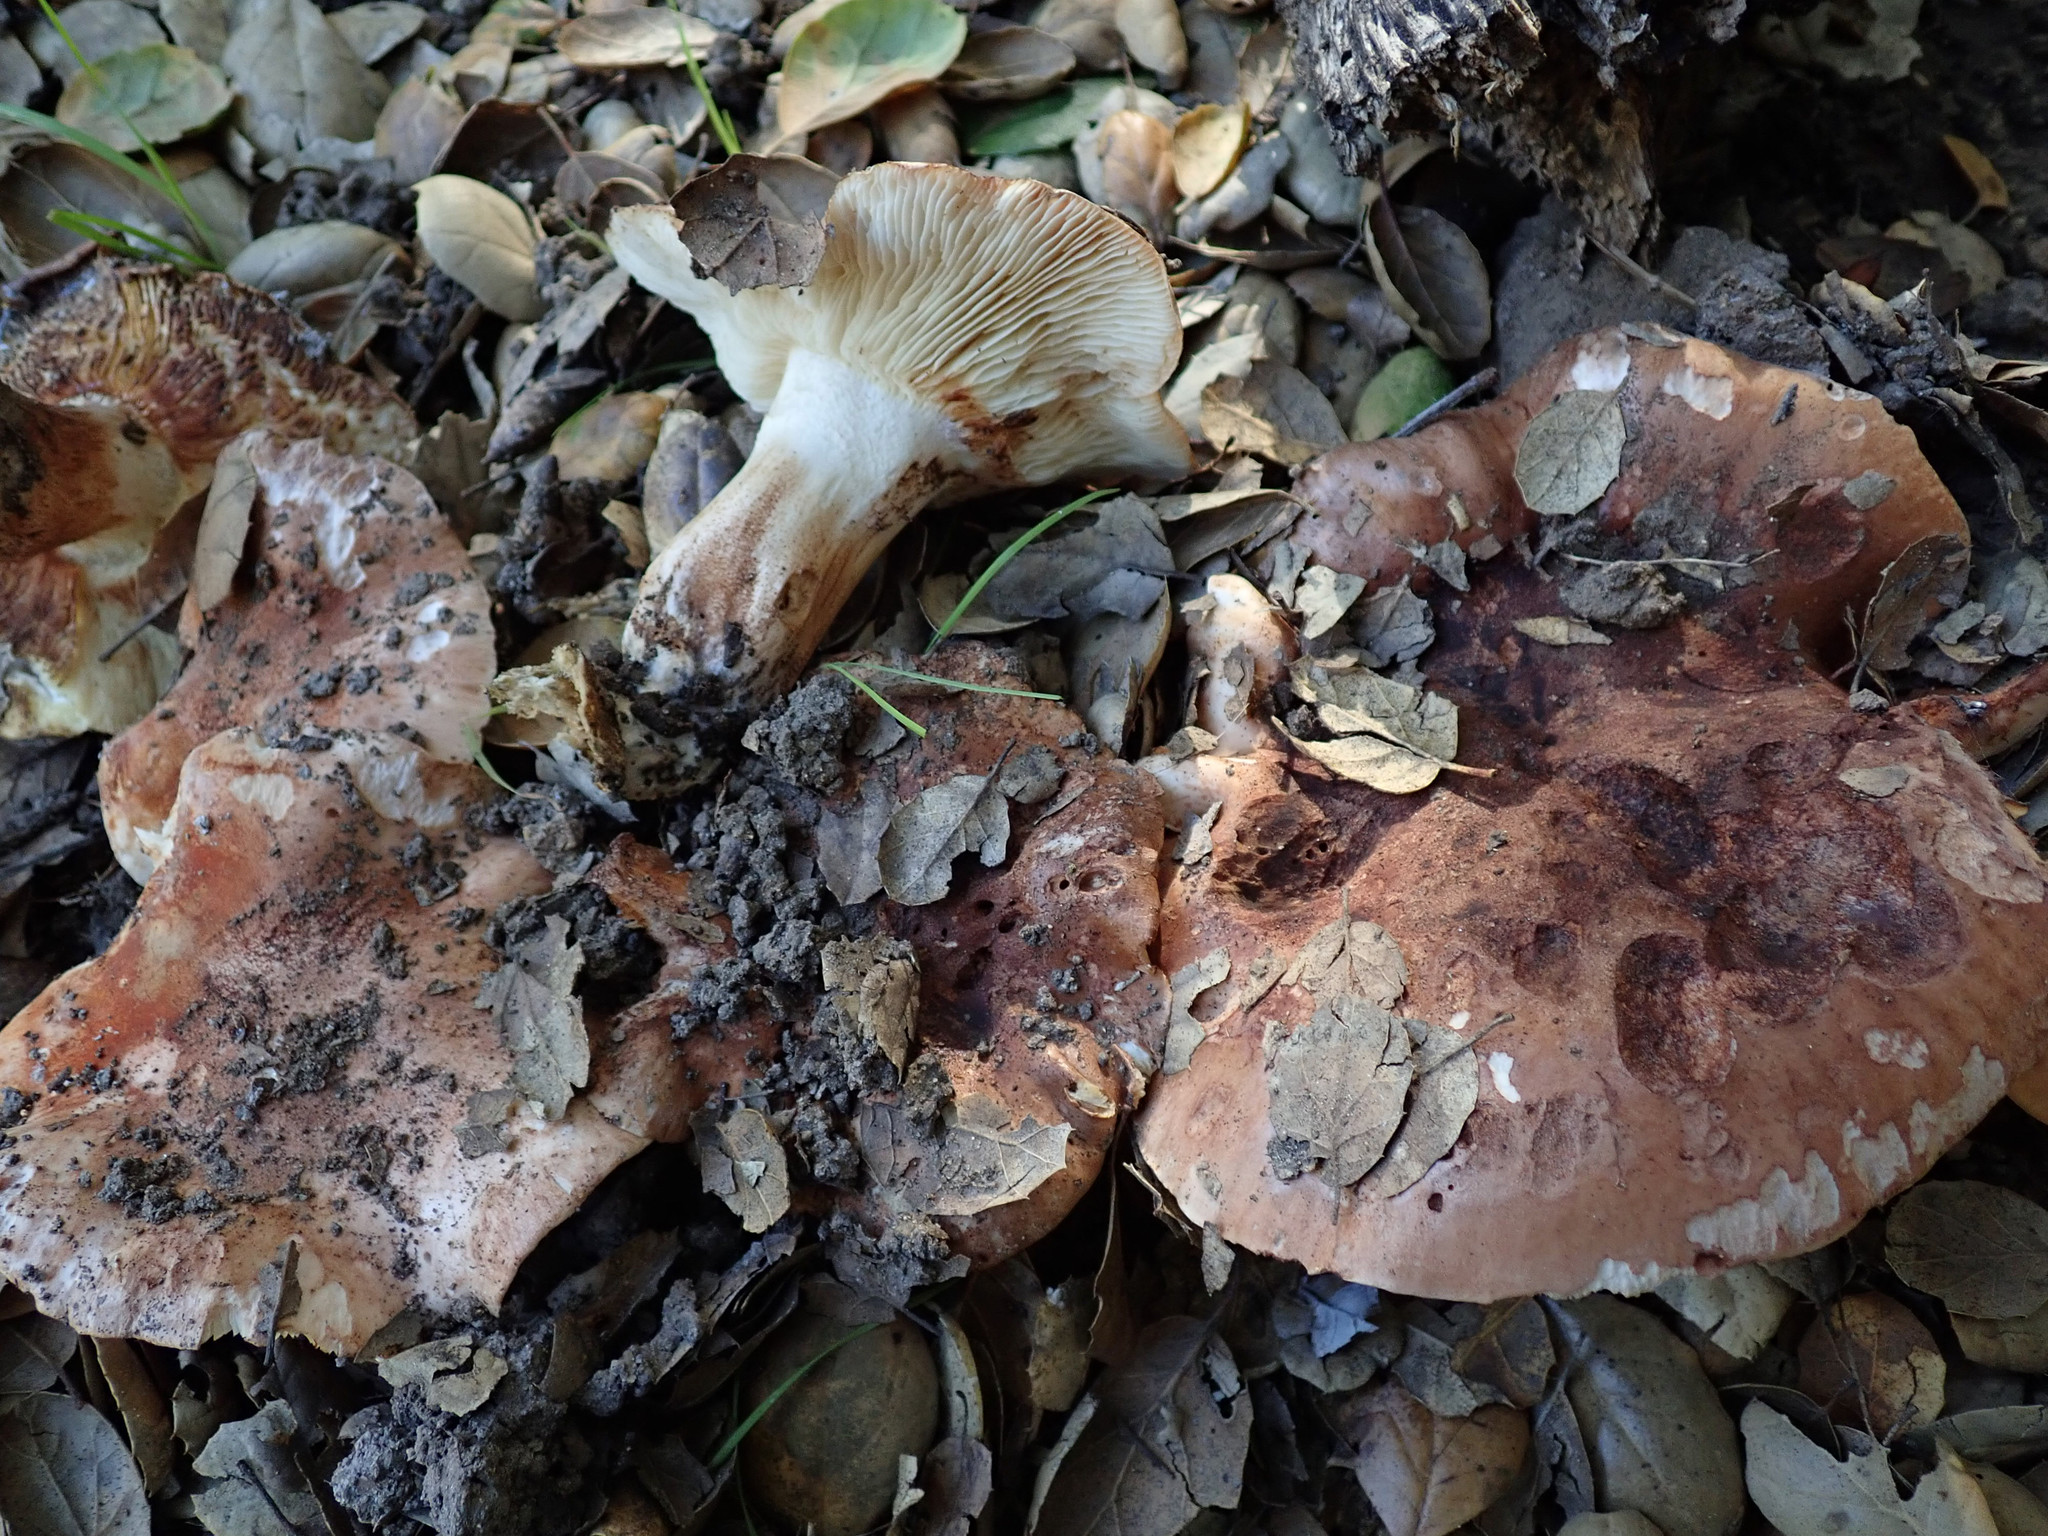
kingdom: Fungi
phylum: Basidiomycota
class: Agaricomycetes
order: Agaricales
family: Tricholomataceae
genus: Melanoleuca
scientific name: Melanoleuca dryophila
